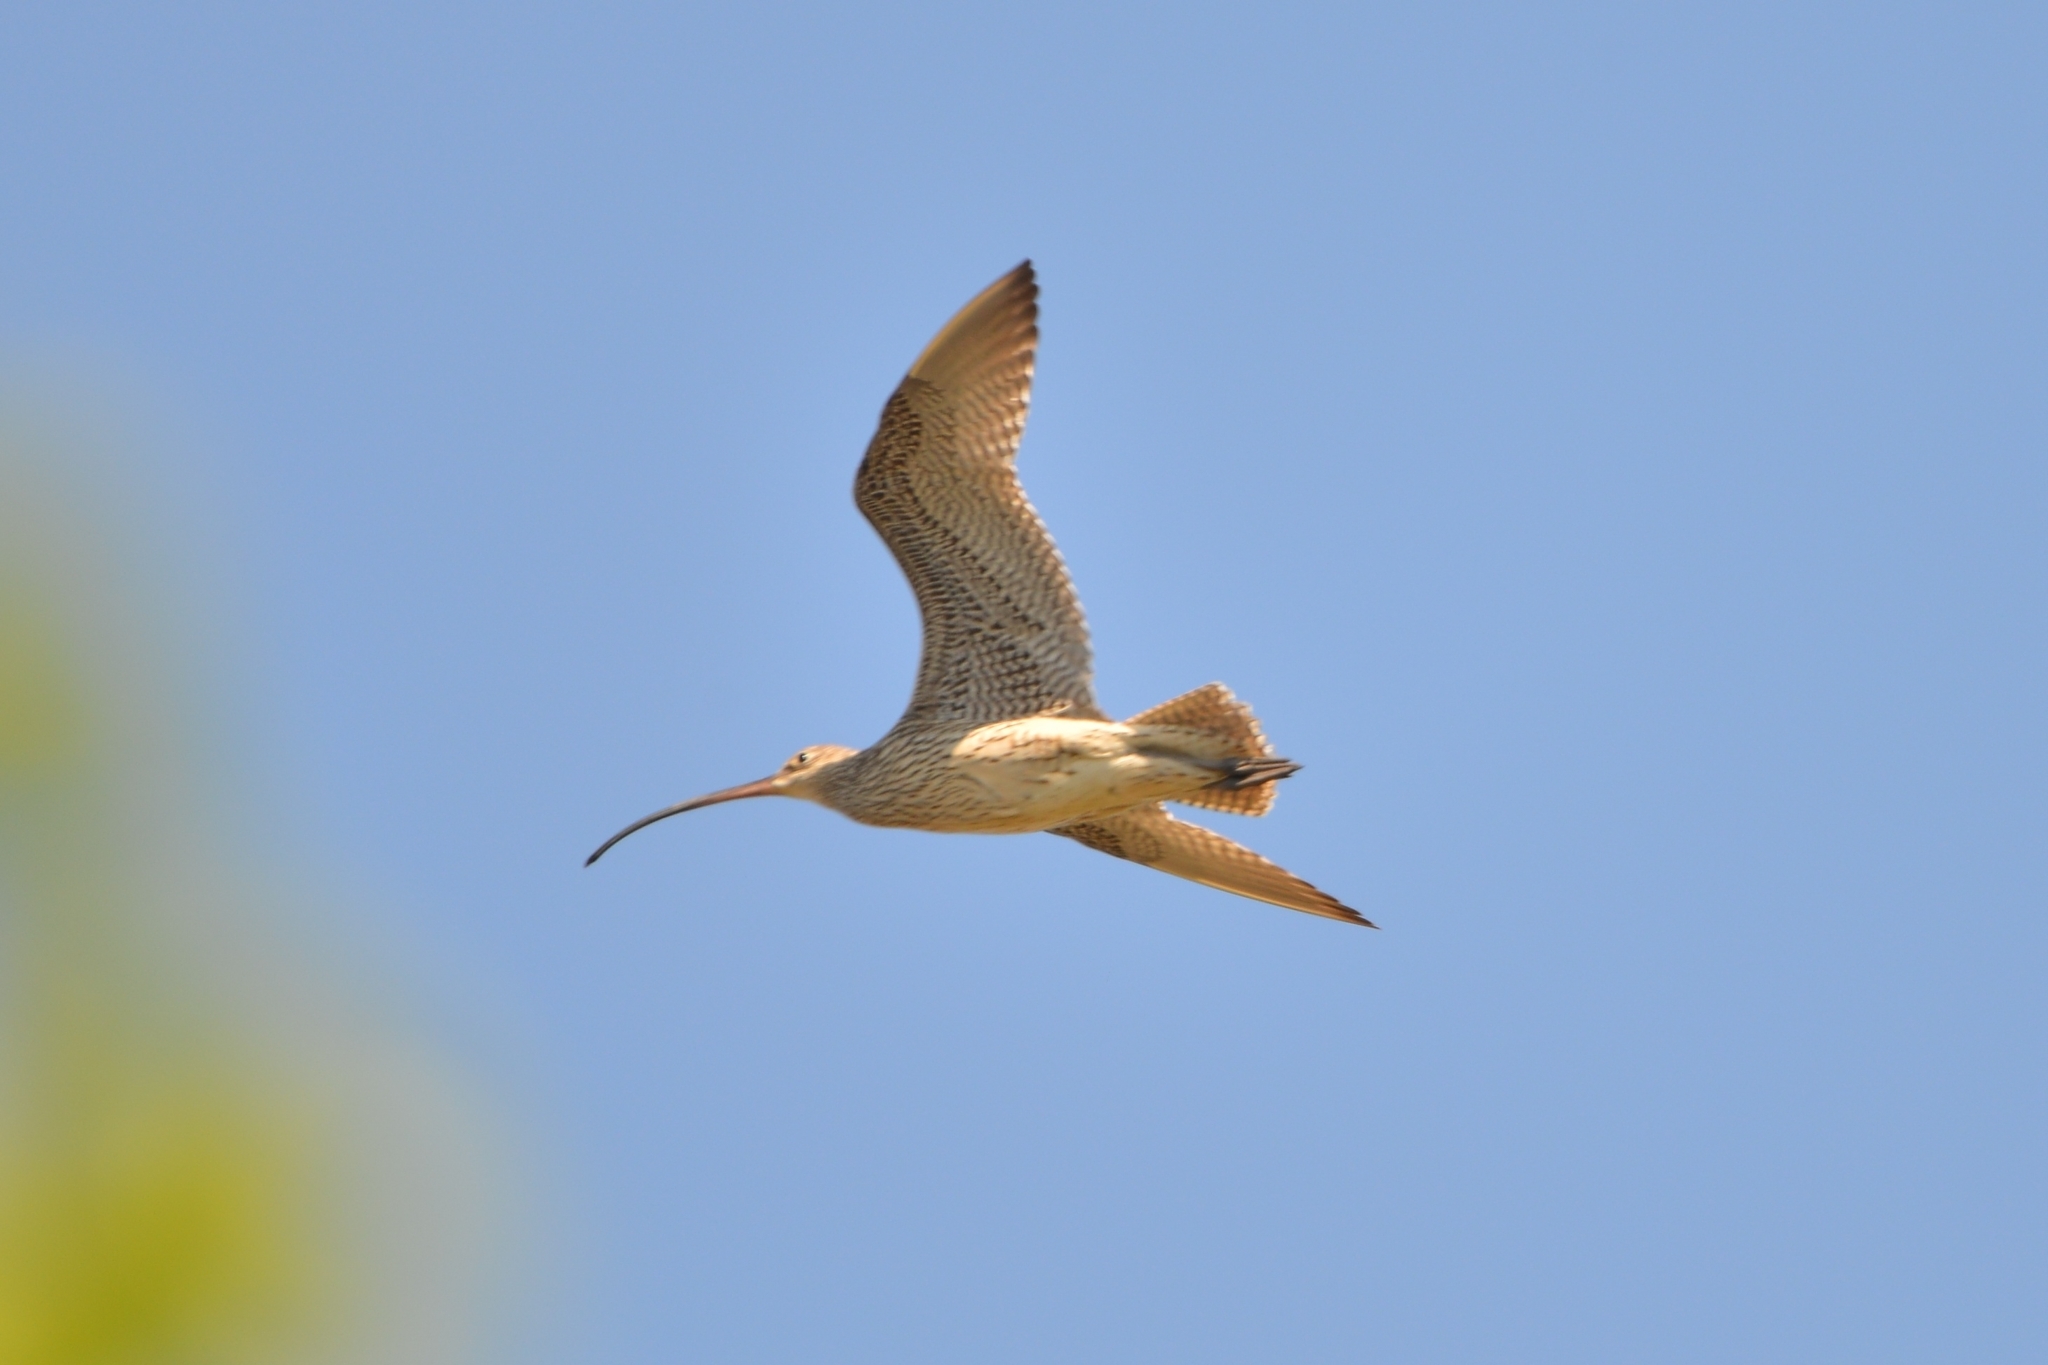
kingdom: Animalia
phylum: Chordata
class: Aves
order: Charadriiformes
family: Scolopacidae
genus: Numenius
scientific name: Numenius madagascariensis
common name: Far eastern curlew
